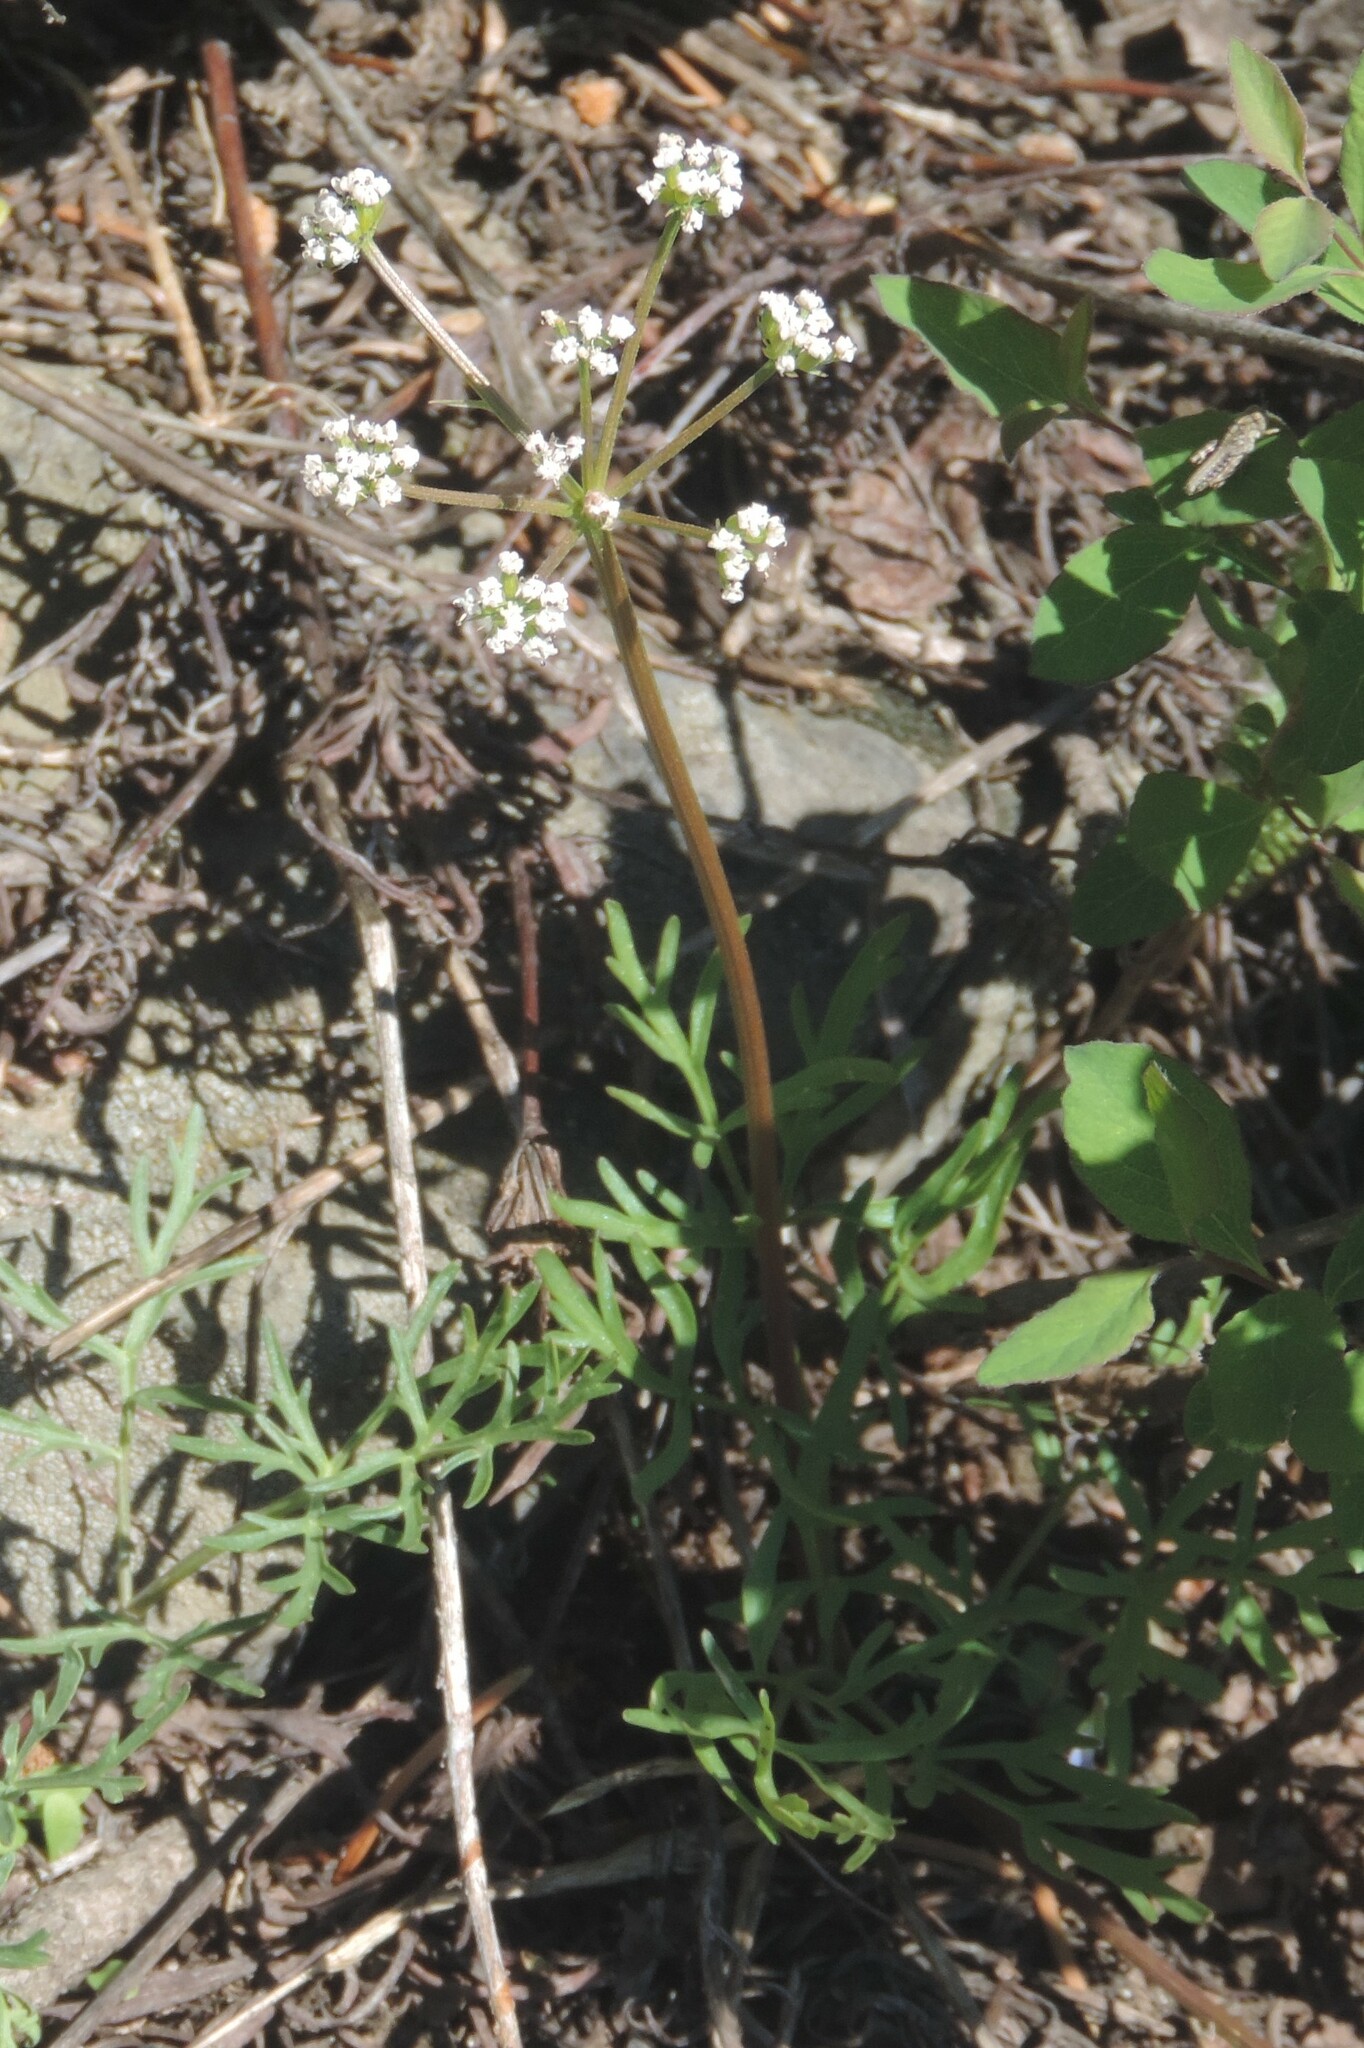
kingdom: Plantae
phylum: Tracheophyta
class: Magnoliopsida
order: Apiales
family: Apiaceae
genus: Lomatium
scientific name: Lomatium geyeri
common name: Geyer's biscuitroot
